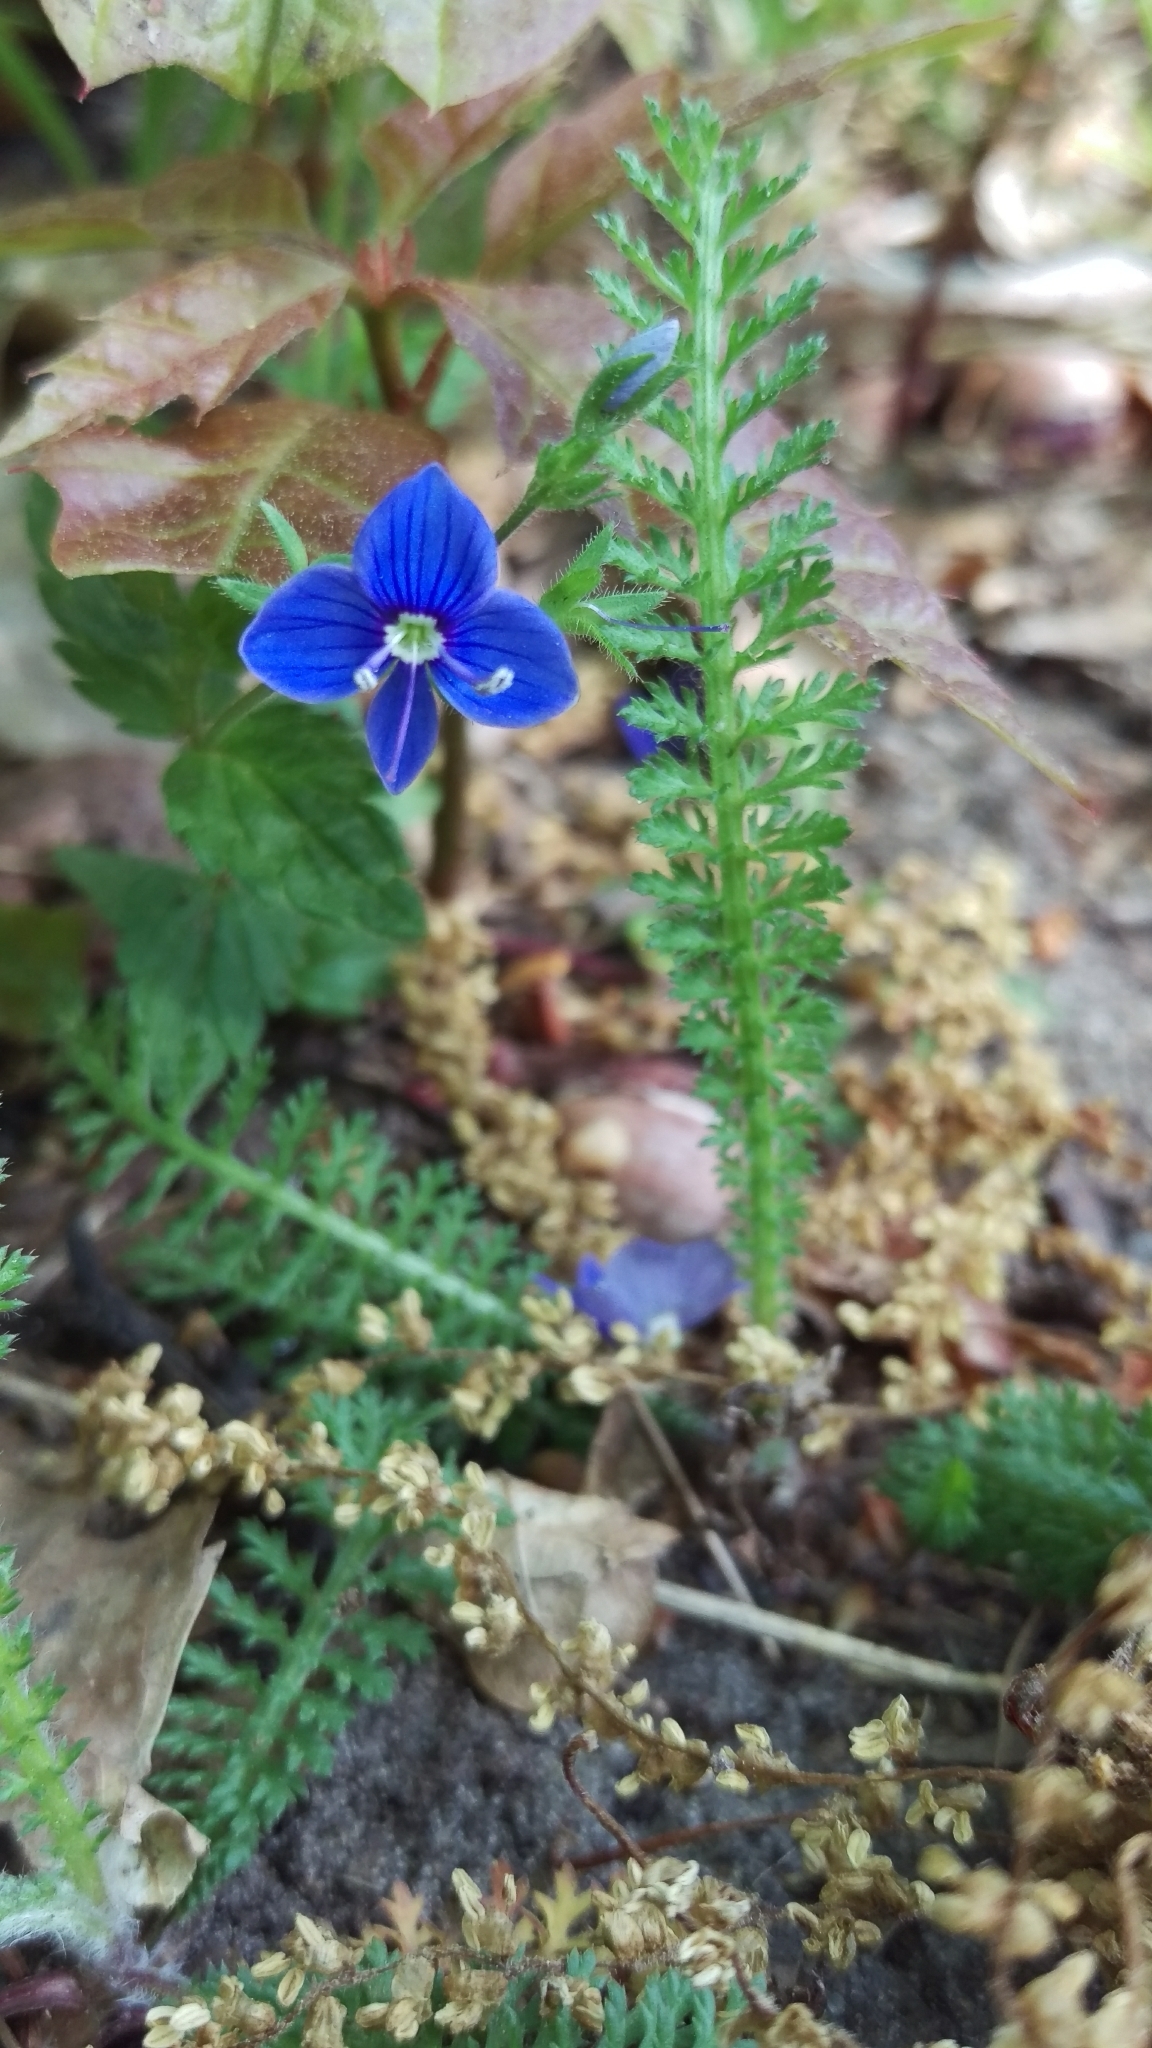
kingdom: Plantae
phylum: Tracheophyta
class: Magnoliopsida
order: Lamiales
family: Plantaginaceae
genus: Veronica
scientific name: Veronica chamaedrys
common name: Germander speedwell
